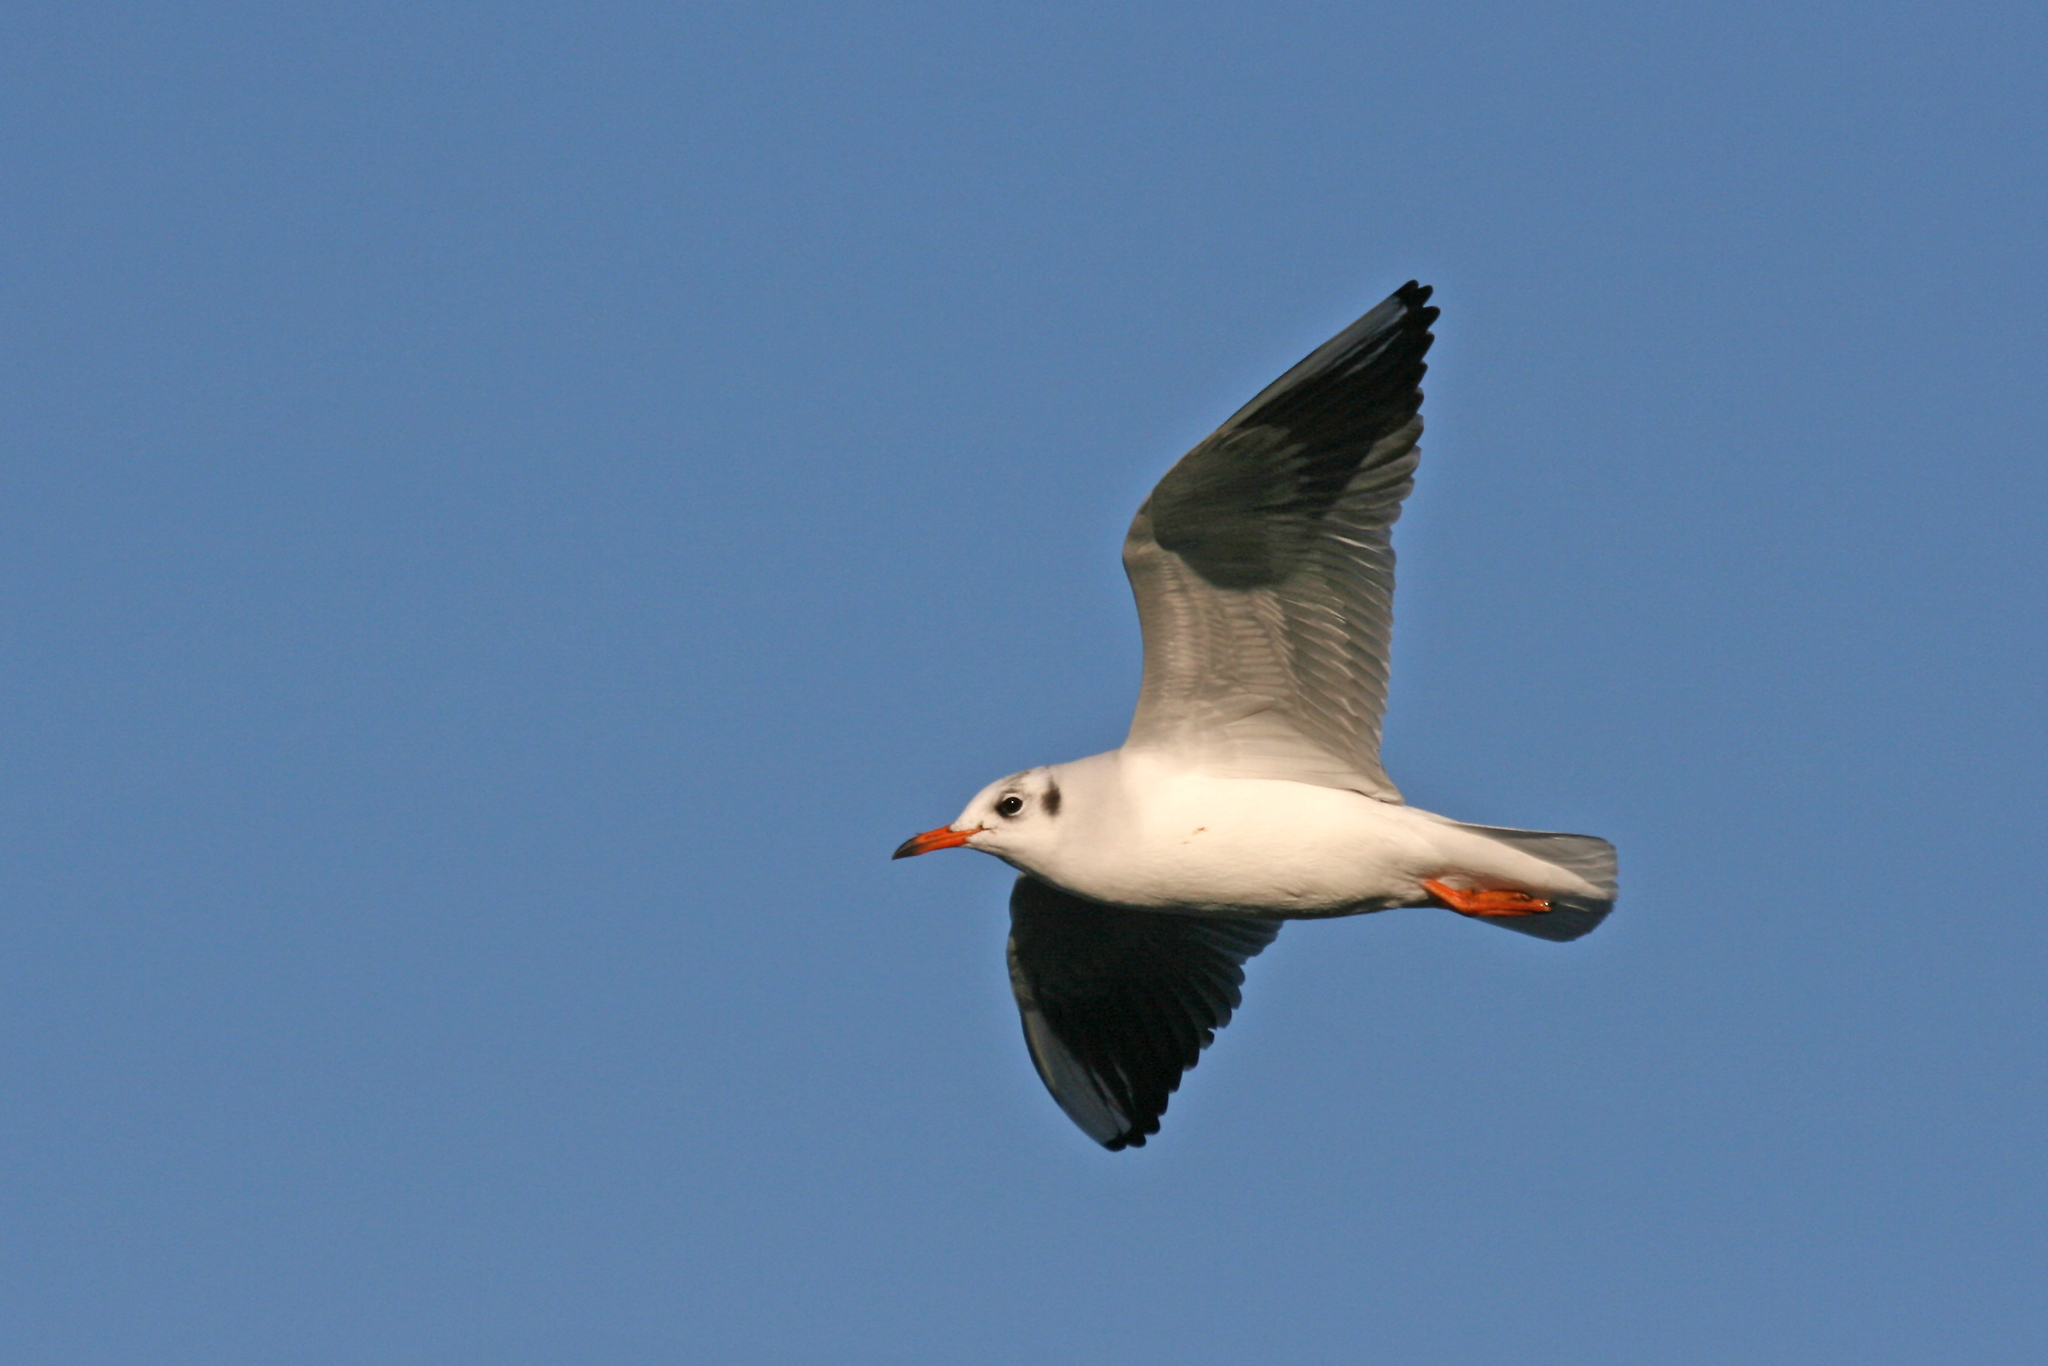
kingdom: Animalia
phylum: Chordata
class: Aves
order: Charadriiformes
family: Laridae
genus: Chroicocephalus
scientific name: Chroicocephalus ridibundus
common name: Black-headed gull
